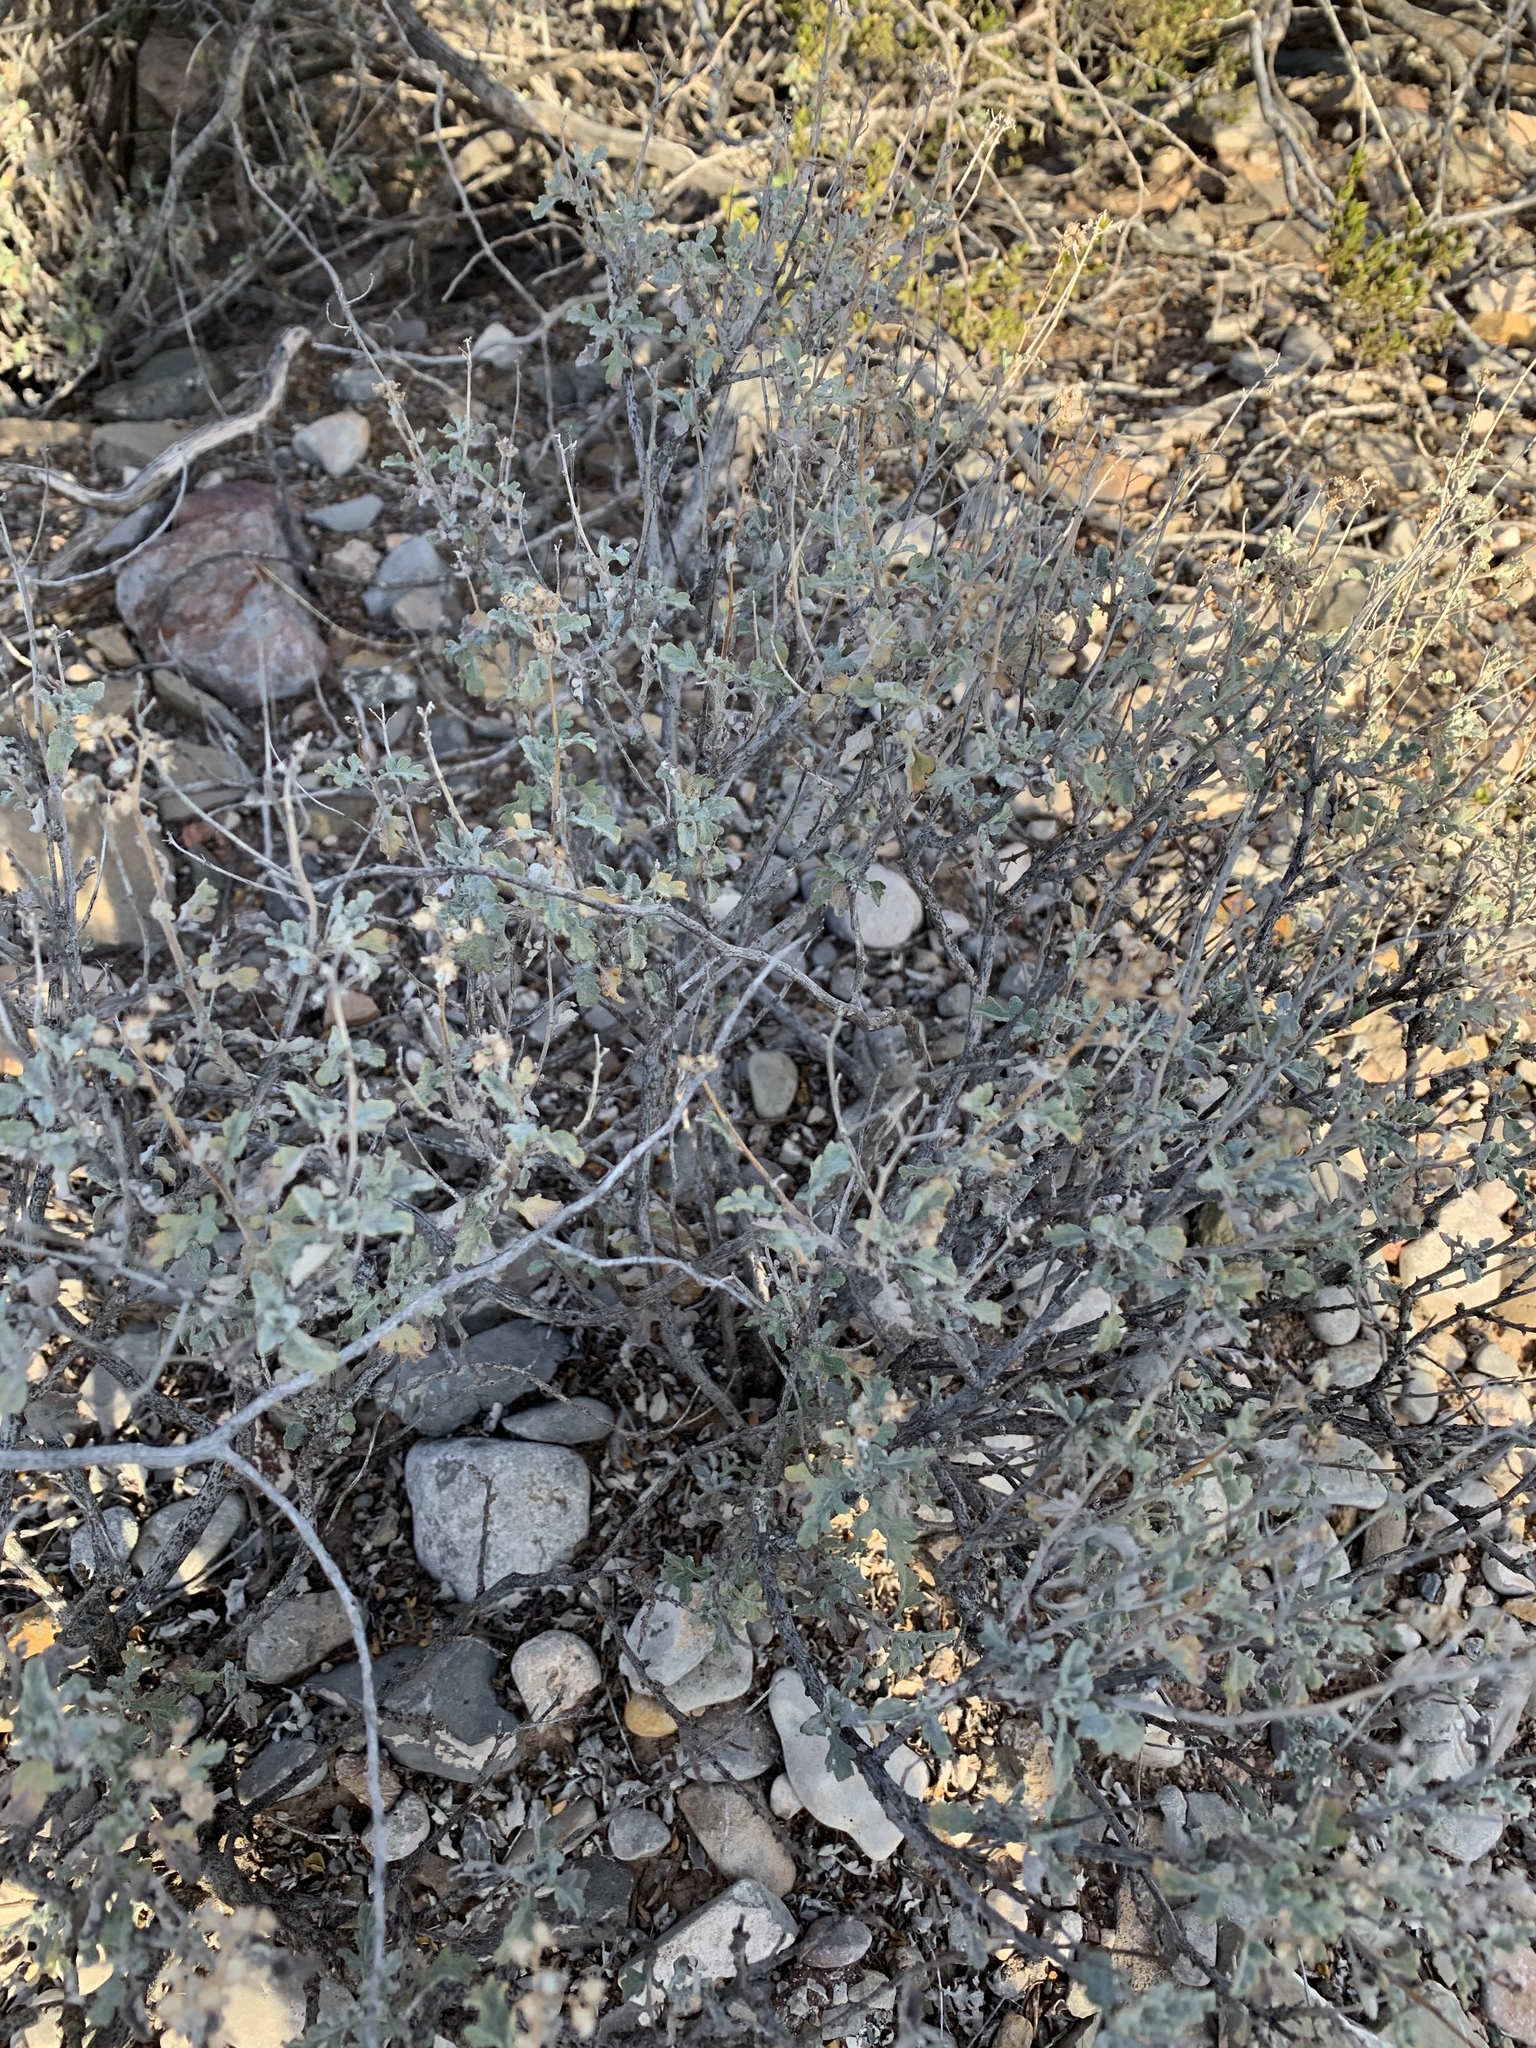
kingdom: Plantae
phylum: Tracheophyta
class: Magnoliopsida
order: Asterales
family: Asteraceae
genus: Parthenium
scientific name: Parthenium incanum
